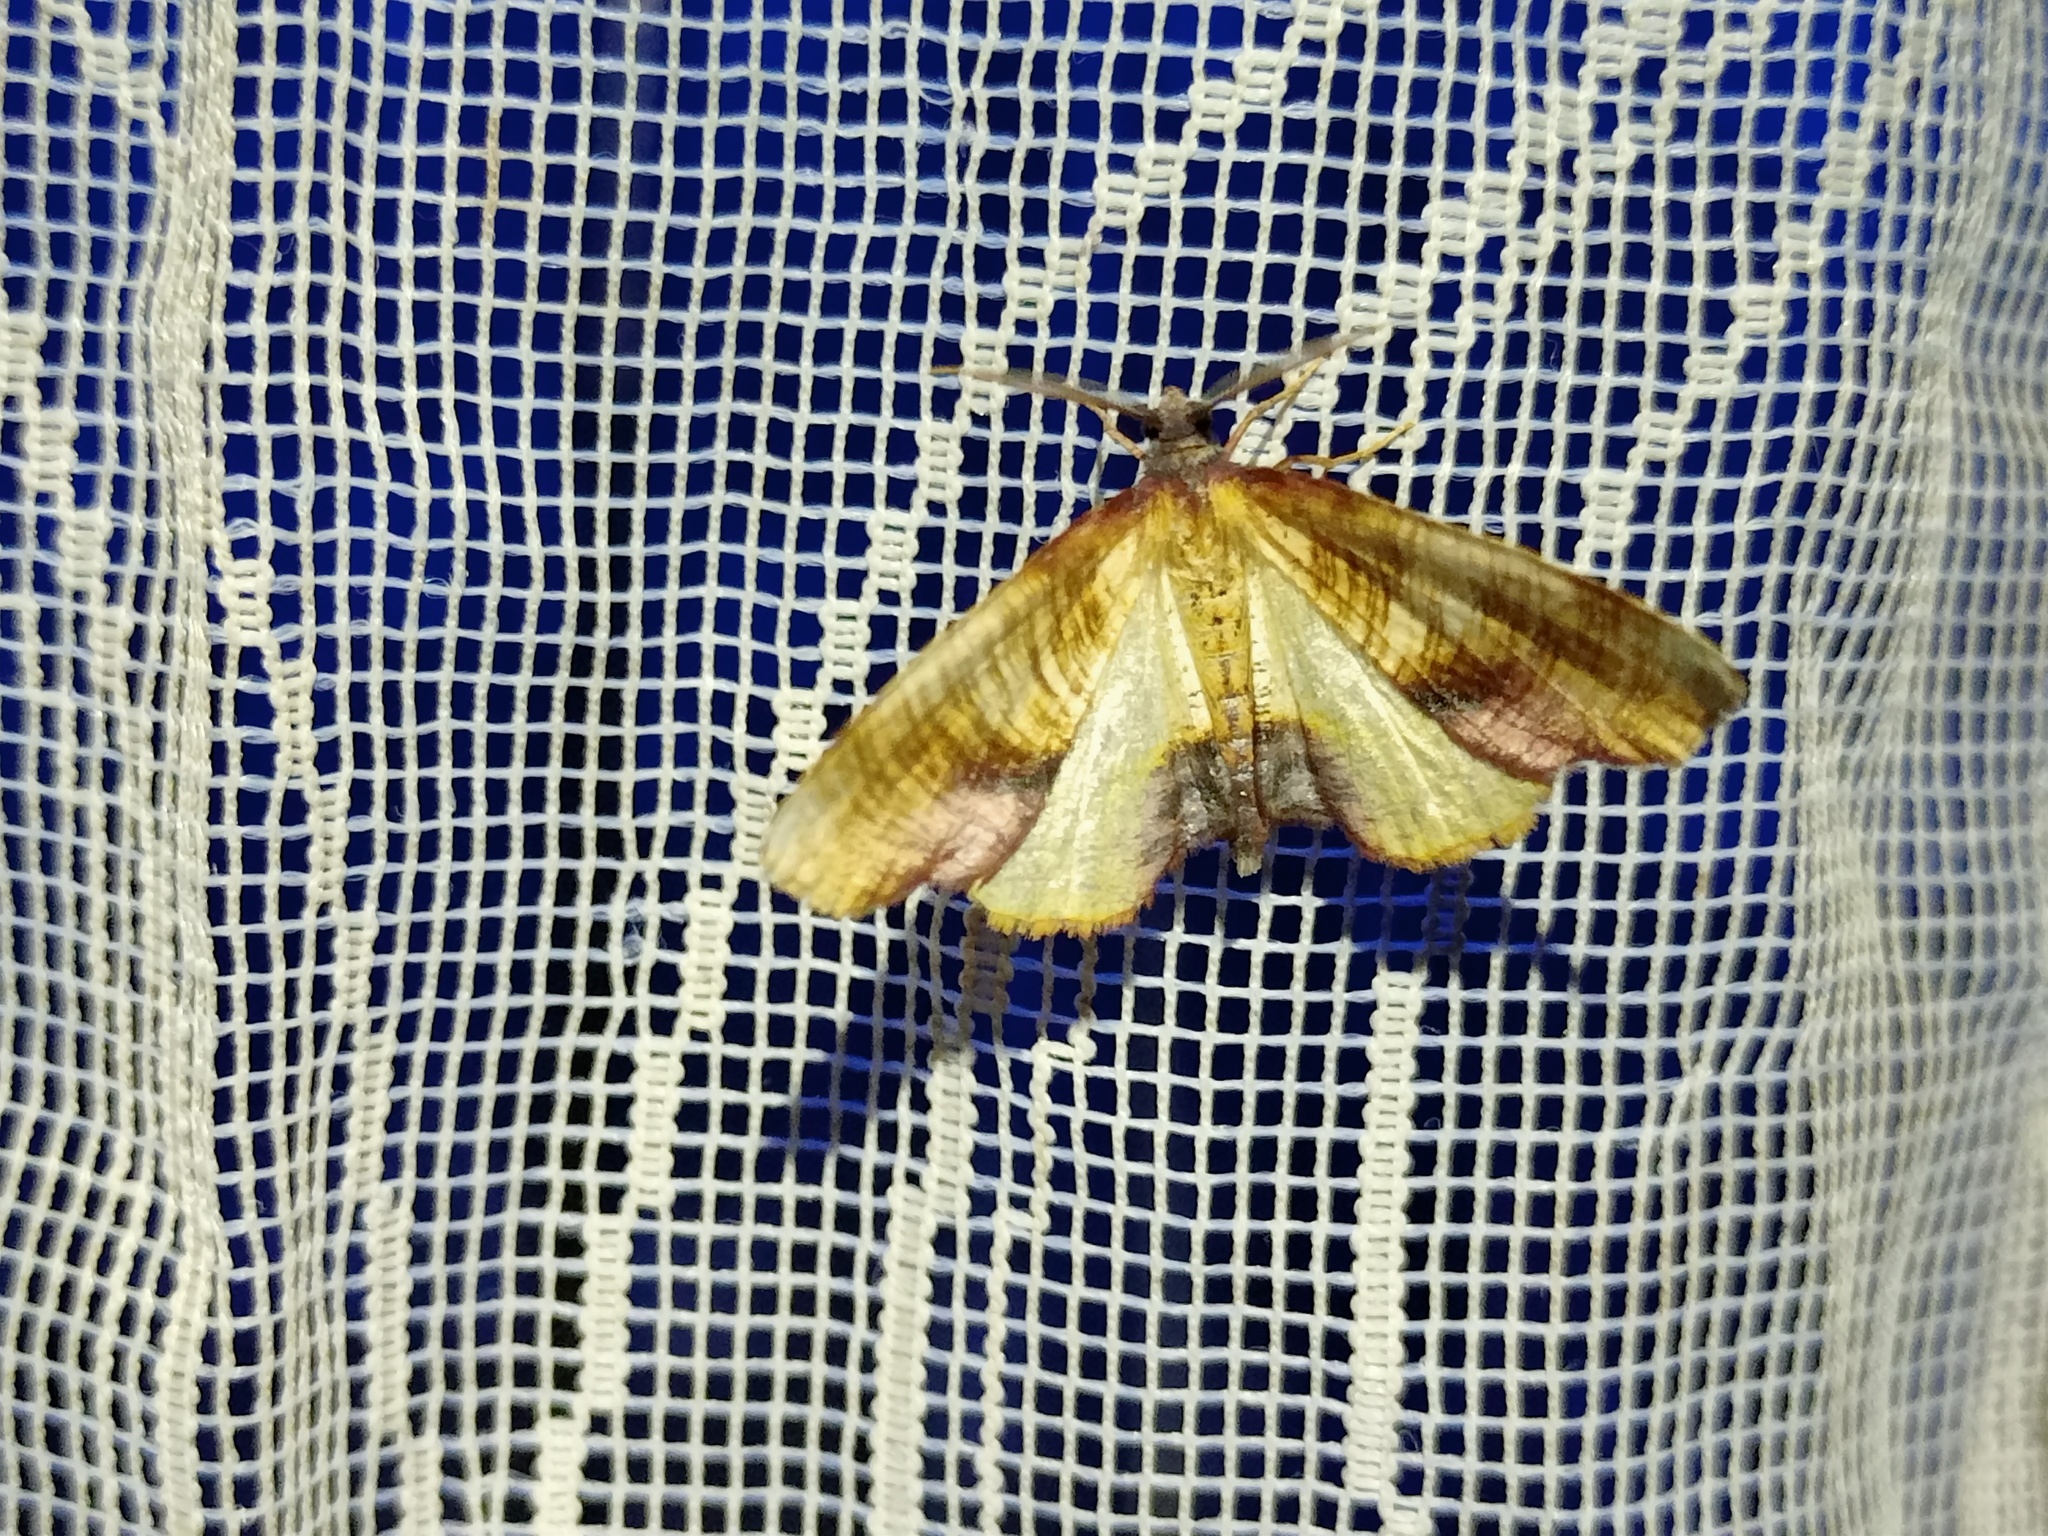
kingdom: Animalia
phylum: Arthropoda
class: Insecta
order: Lepidoptera
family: Geometridae
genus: Plagodis
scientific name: Plagodis dolabraria
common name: Scorched wing
